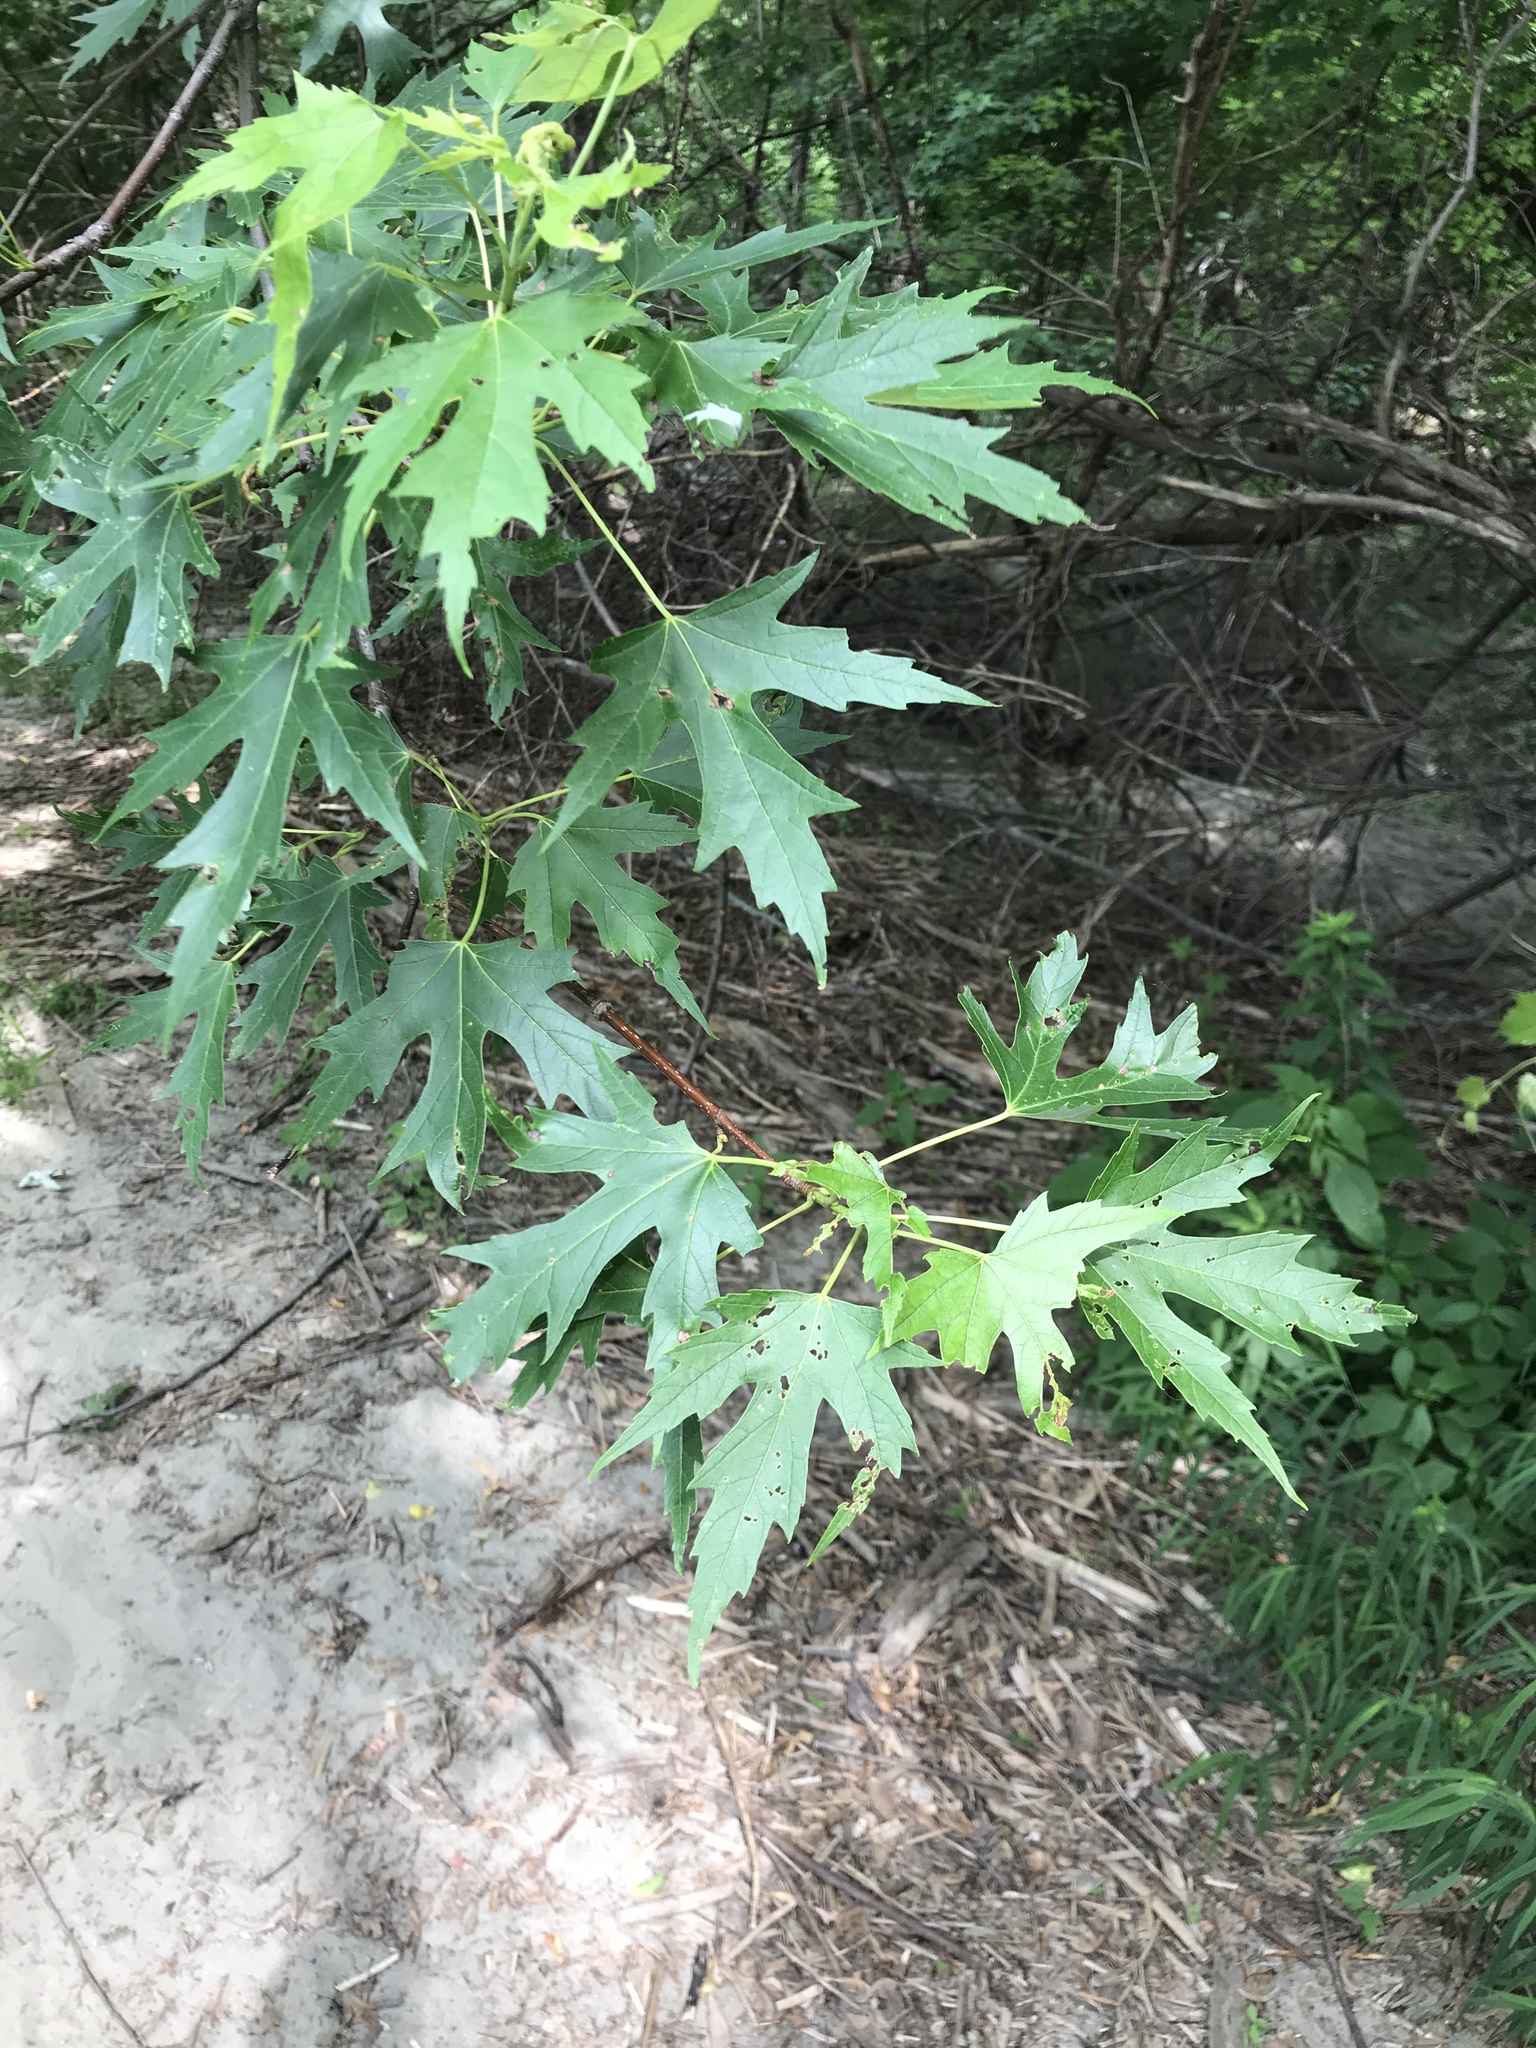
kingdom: Plantae
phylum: Tracheophyta
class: Magnoliopsida
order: Sapindales
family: Sapindaceae
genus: Acer
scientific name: Acer saccharinum
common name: Silver maple
